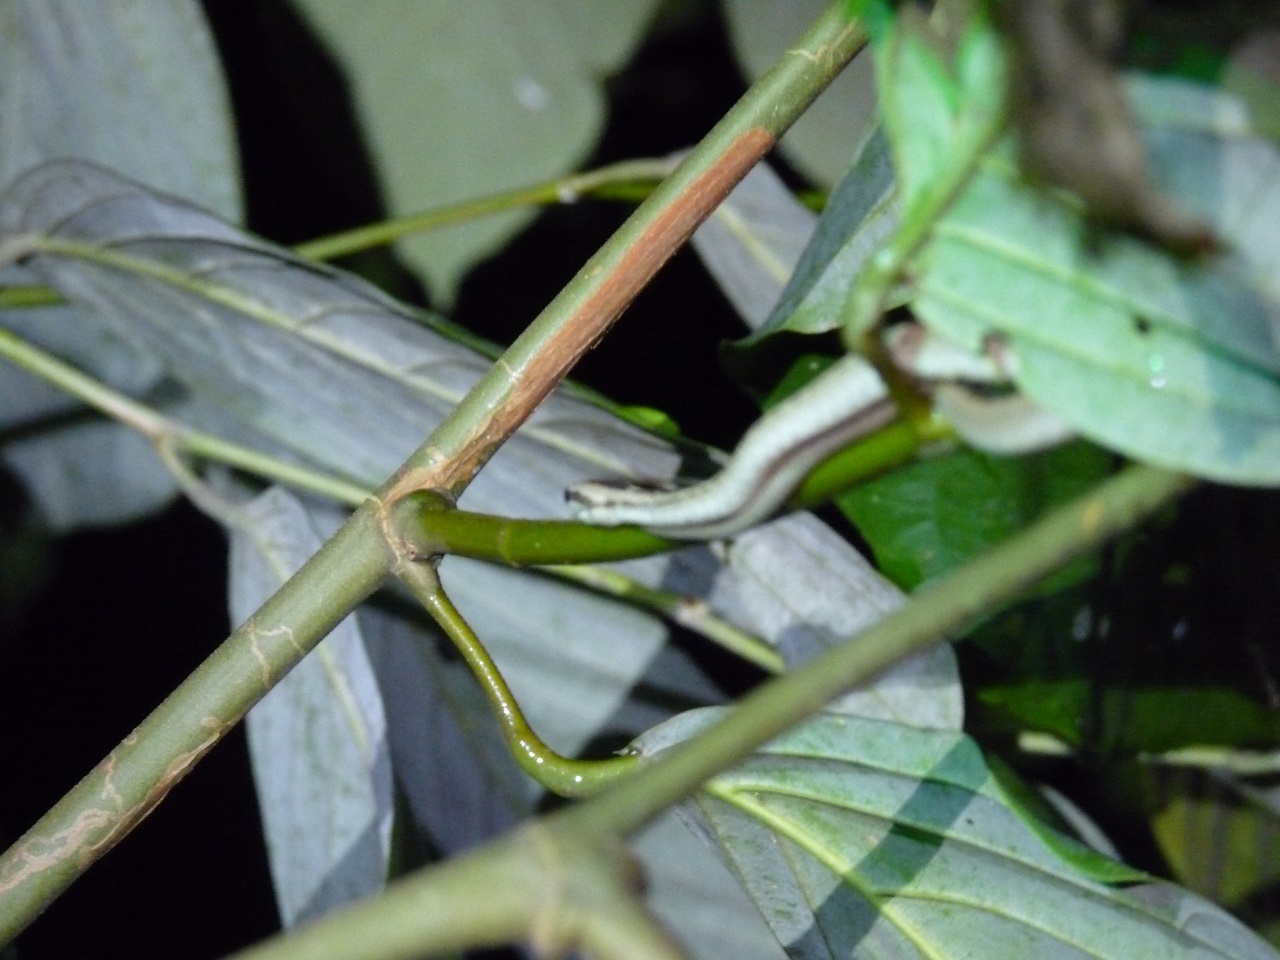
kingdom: Animalia
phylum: Chordata
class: Squamata
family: Pseudaspididae
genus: Psammodynastes
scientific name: Psammodynastes pictus
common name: Painted mock viper
